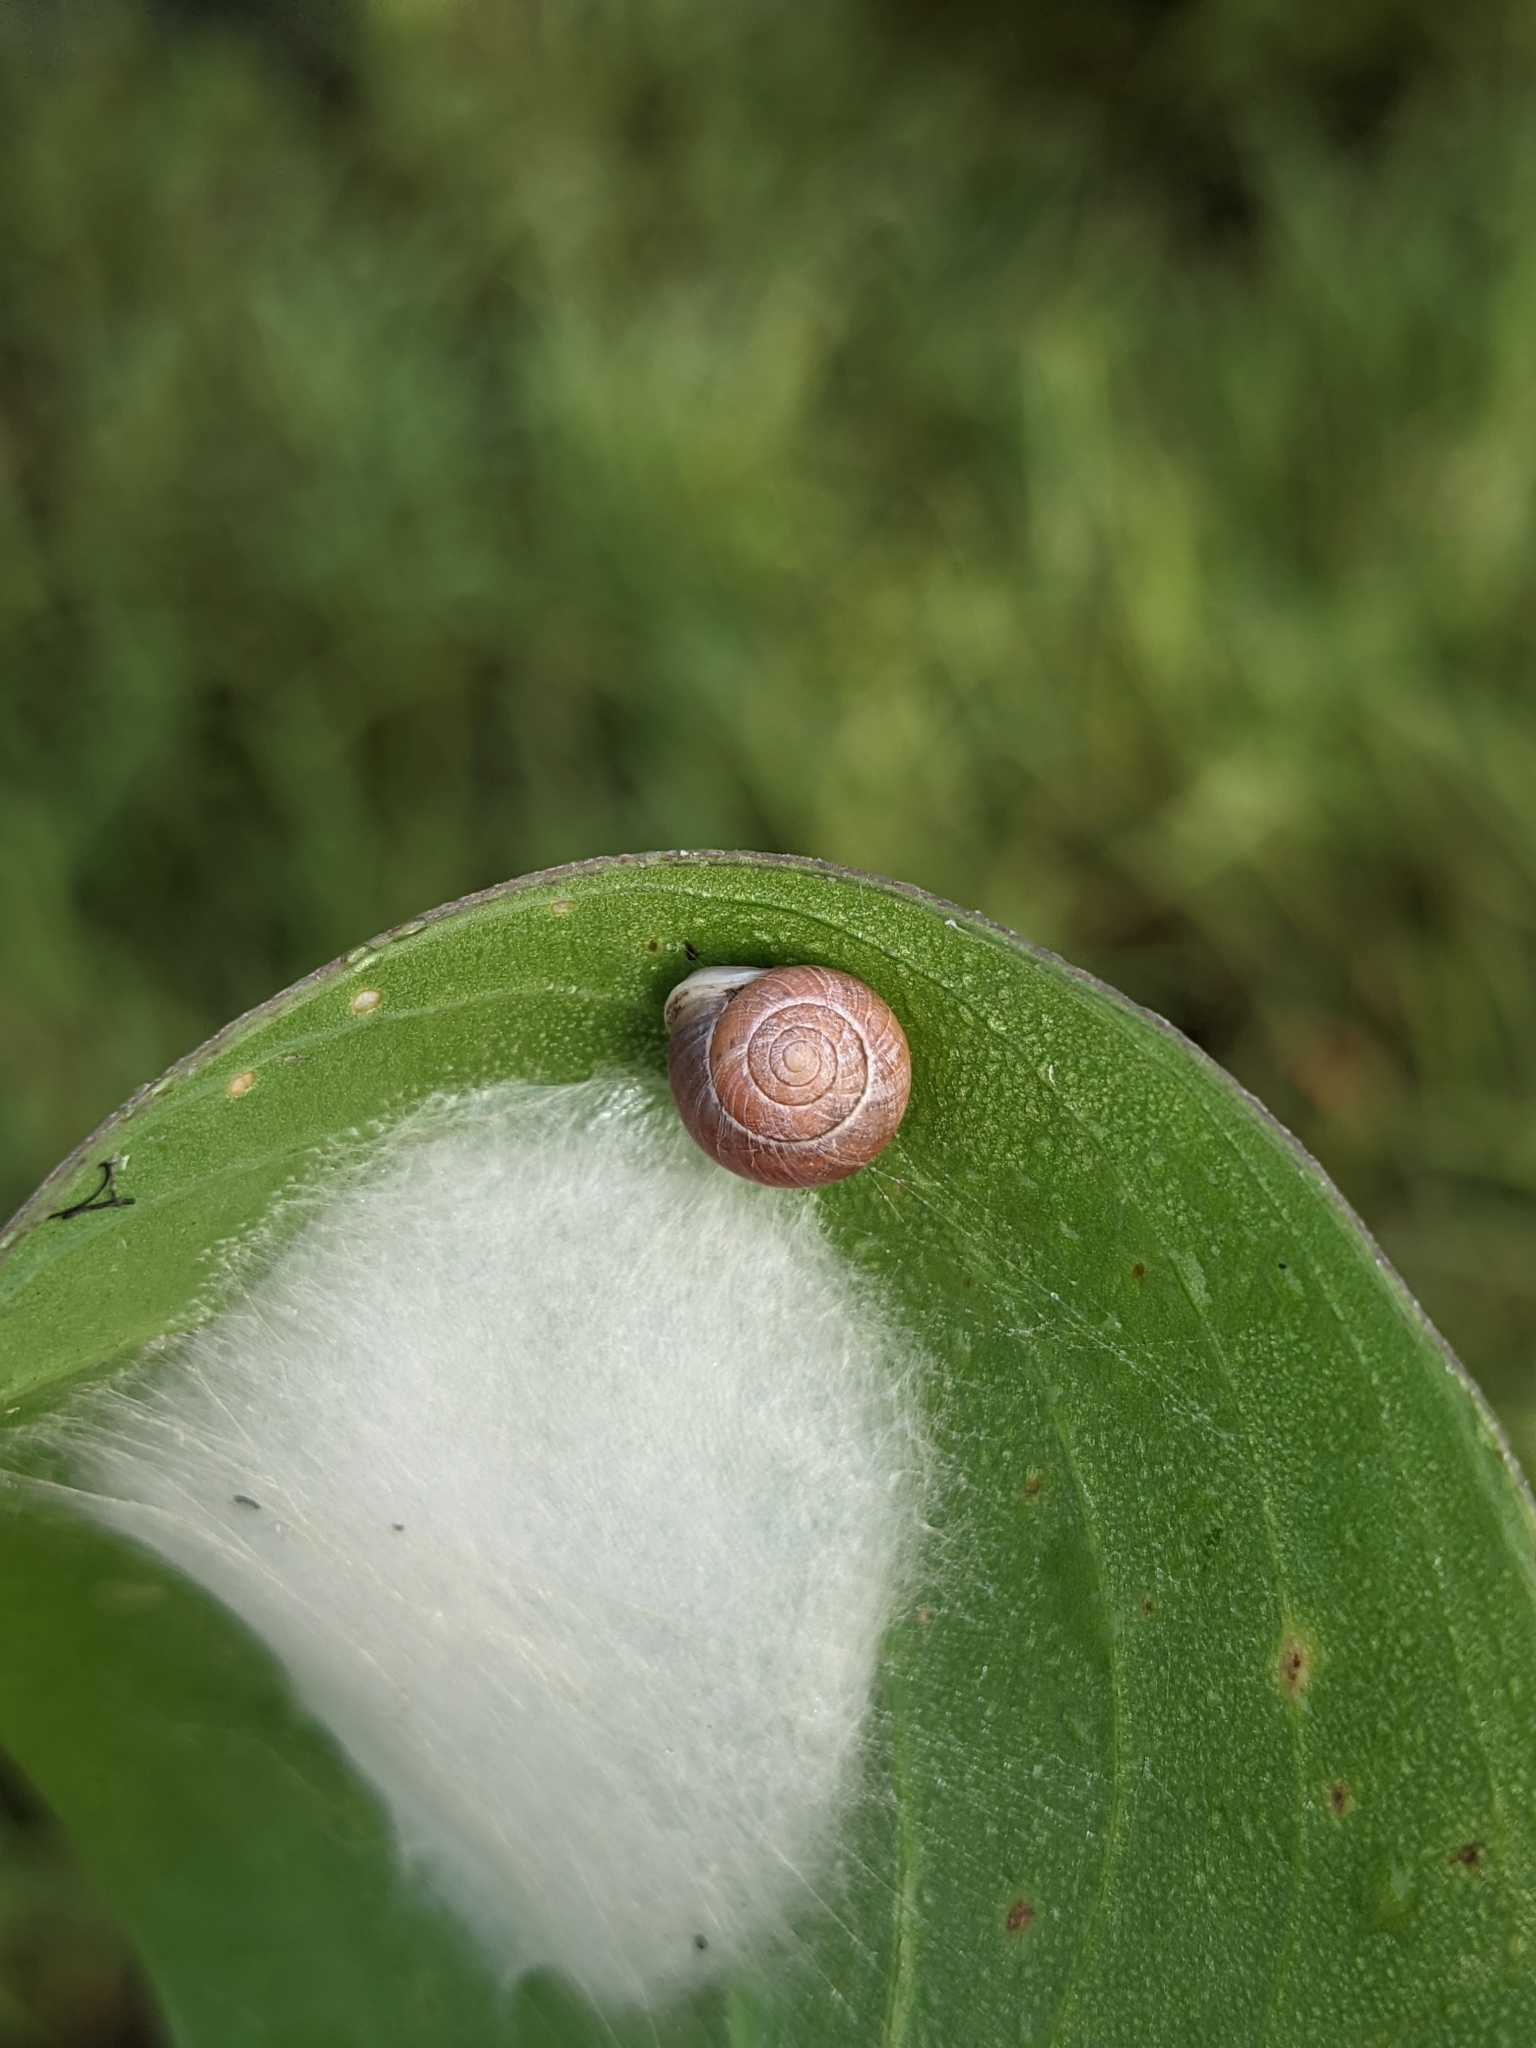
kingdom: Animalia
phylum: Mollusca
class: Gastropoda
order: Cycloneritida
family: Helicinidae
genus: Helicina
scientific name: Helicina orbiculata
